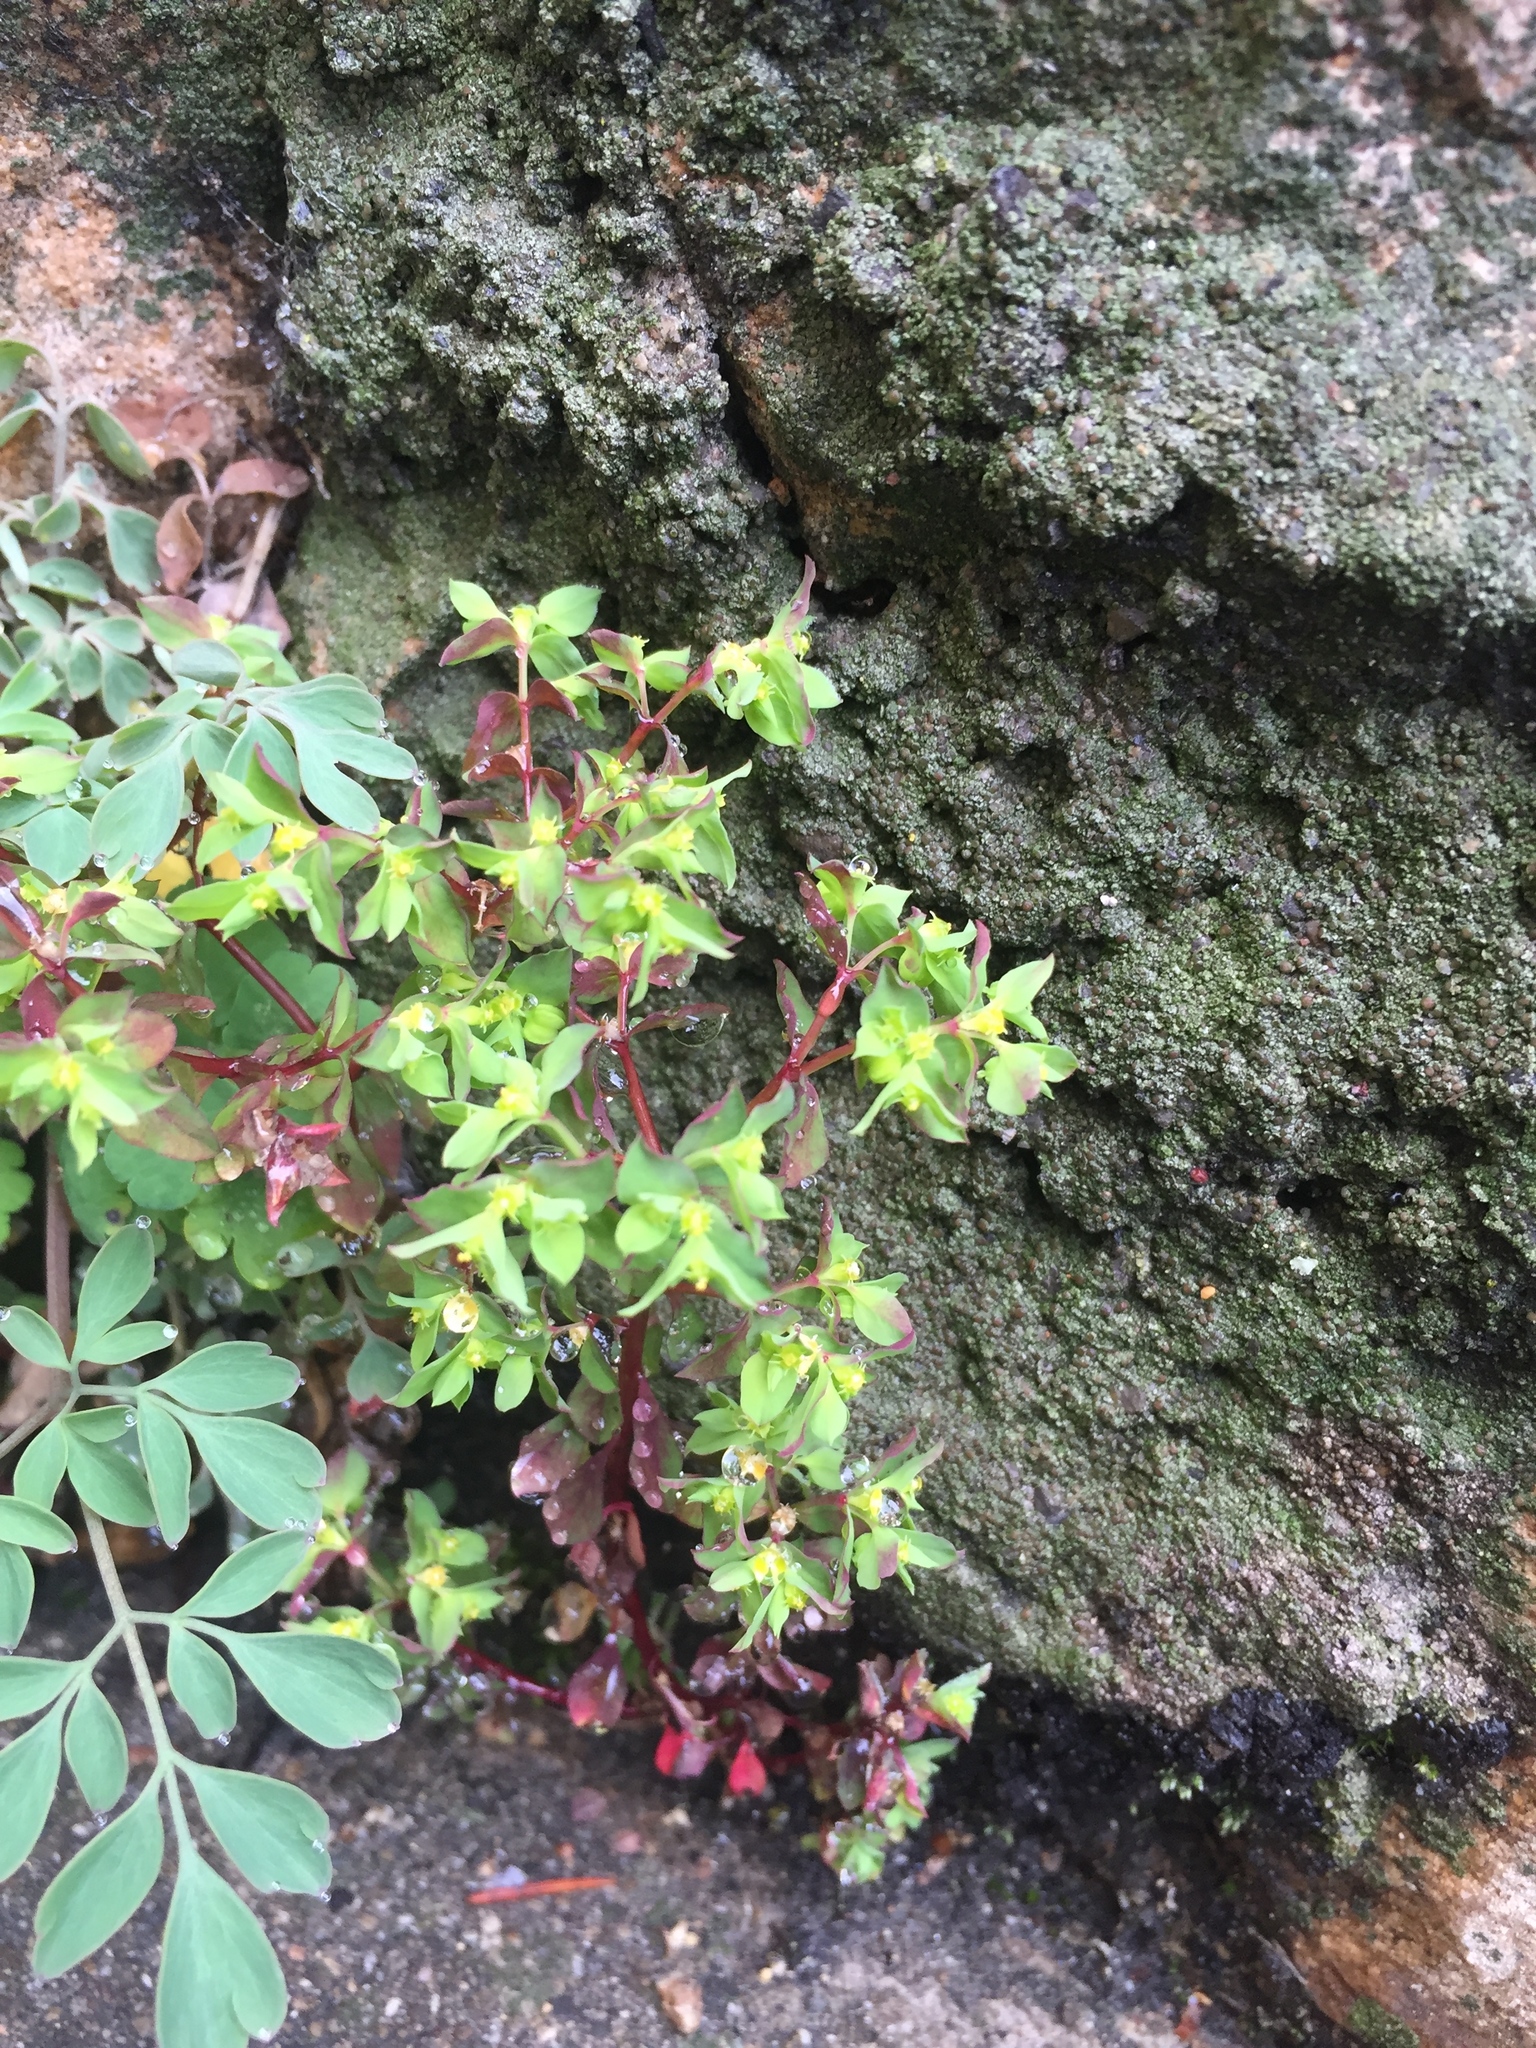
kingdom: Plantae
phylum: Tracheophyta
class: Magnoliopsida
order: Malpighiales
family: Euphorbiaceae
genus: Euphorbia
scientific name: Euphorbia peplus
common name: Petty spurge
